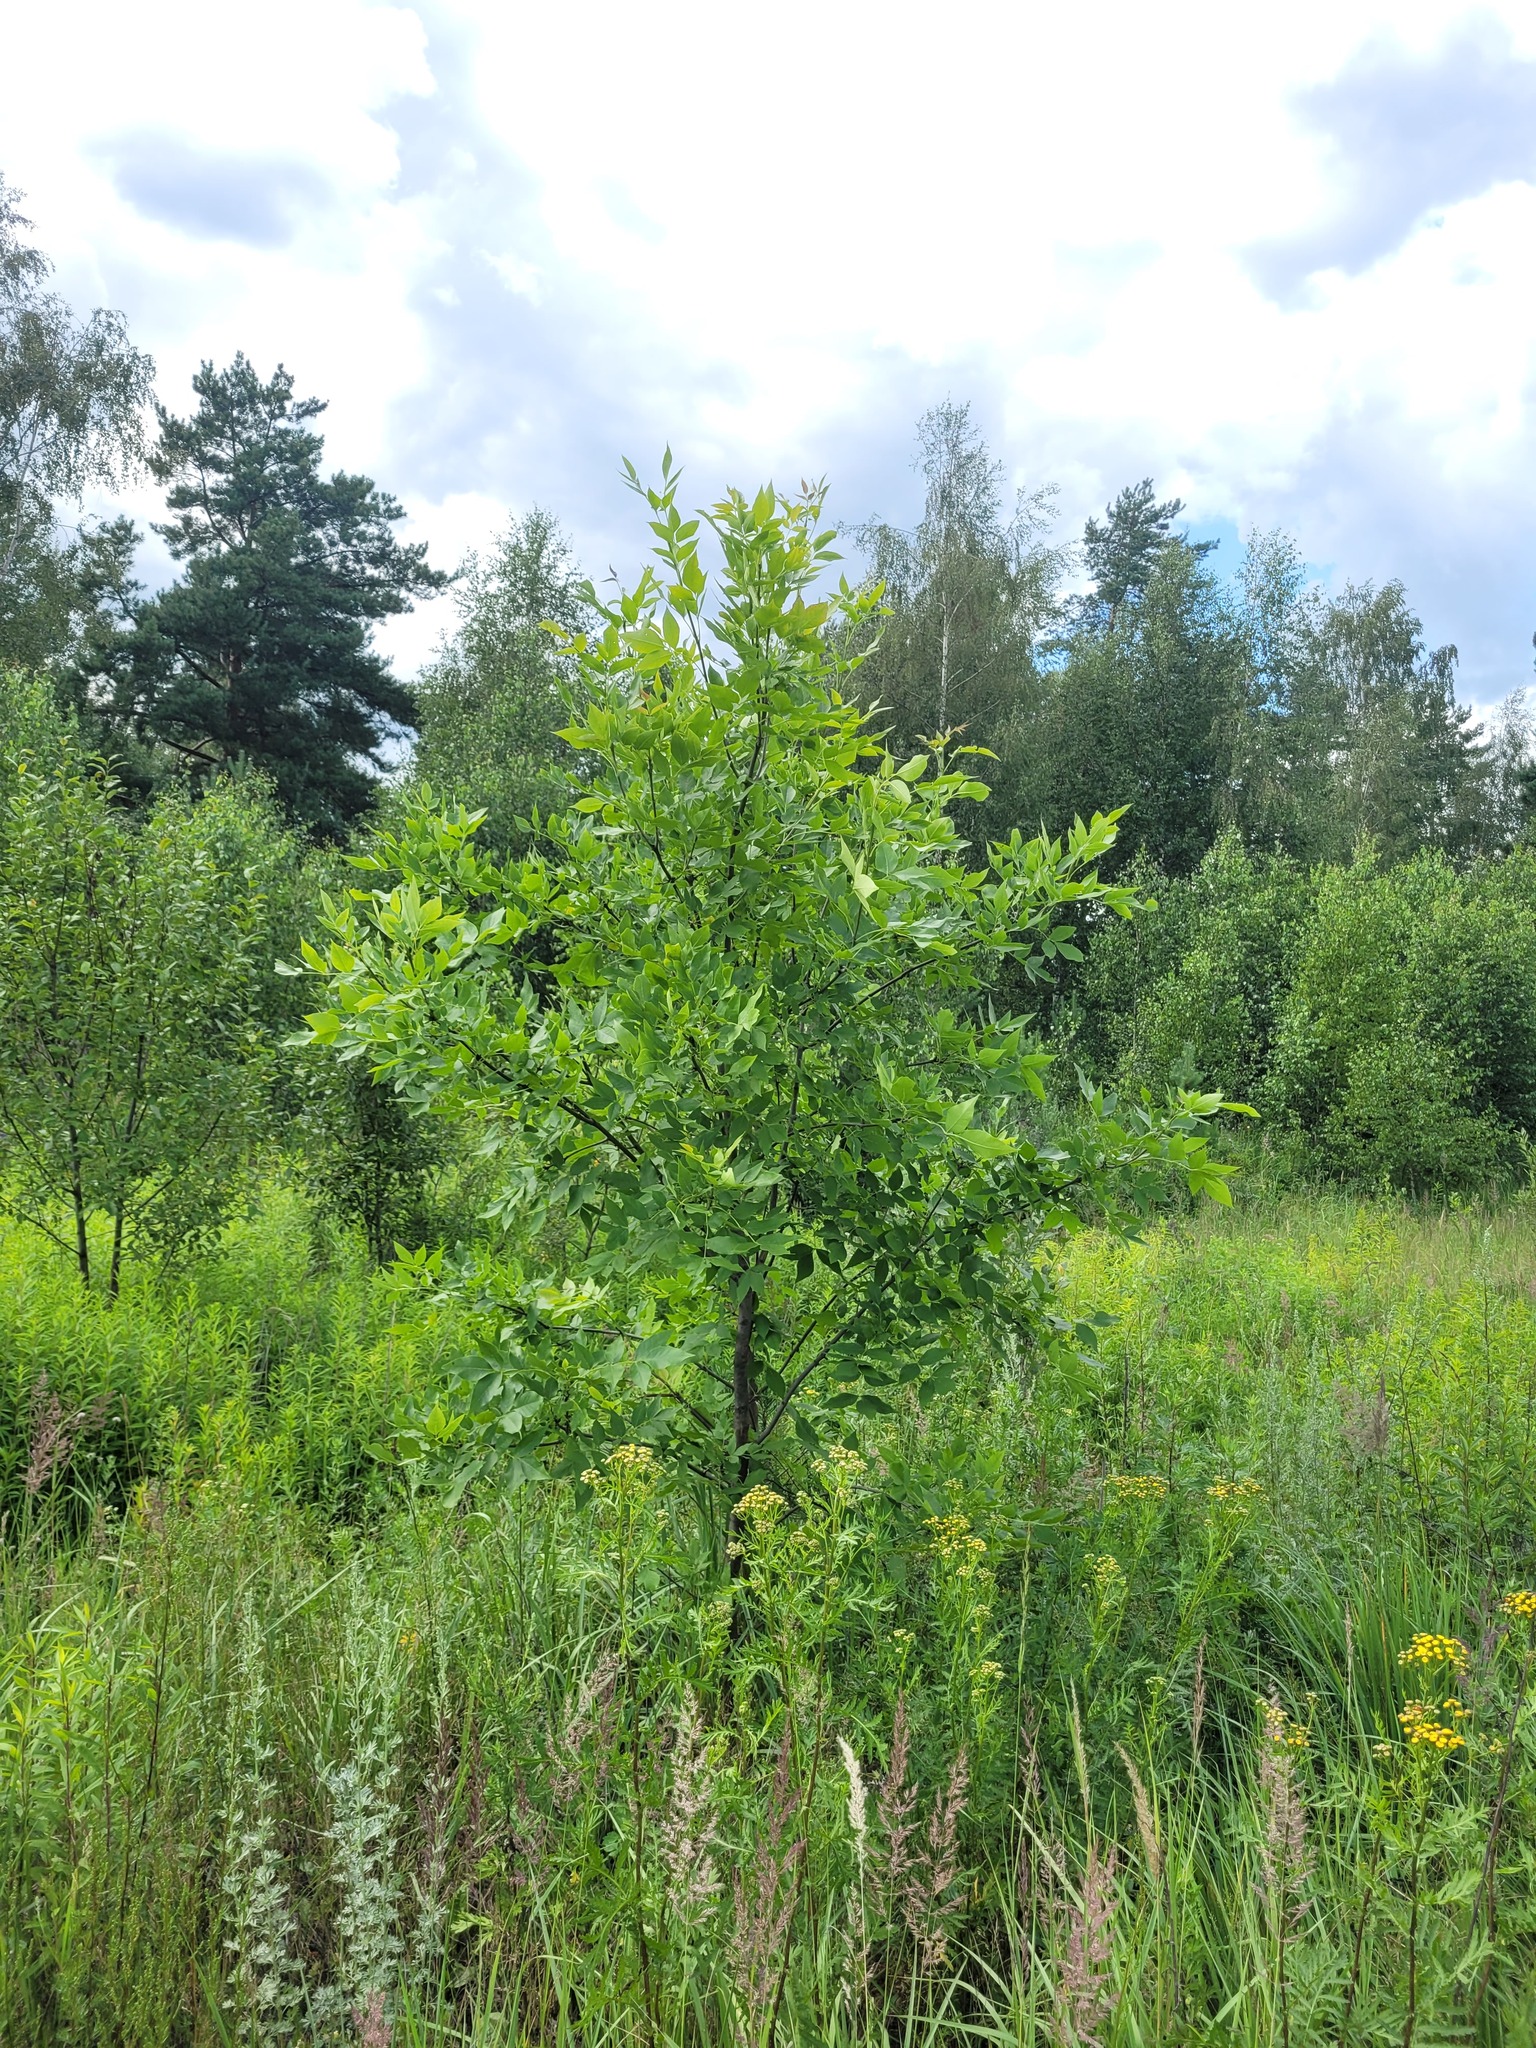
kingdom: Plantae
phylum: Tracheophyta
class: Magnoliopsida
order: Lamiales
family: Oleaceae
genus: Fraxinus
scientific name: Fraxinus pennsylvanica
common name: Green ash
